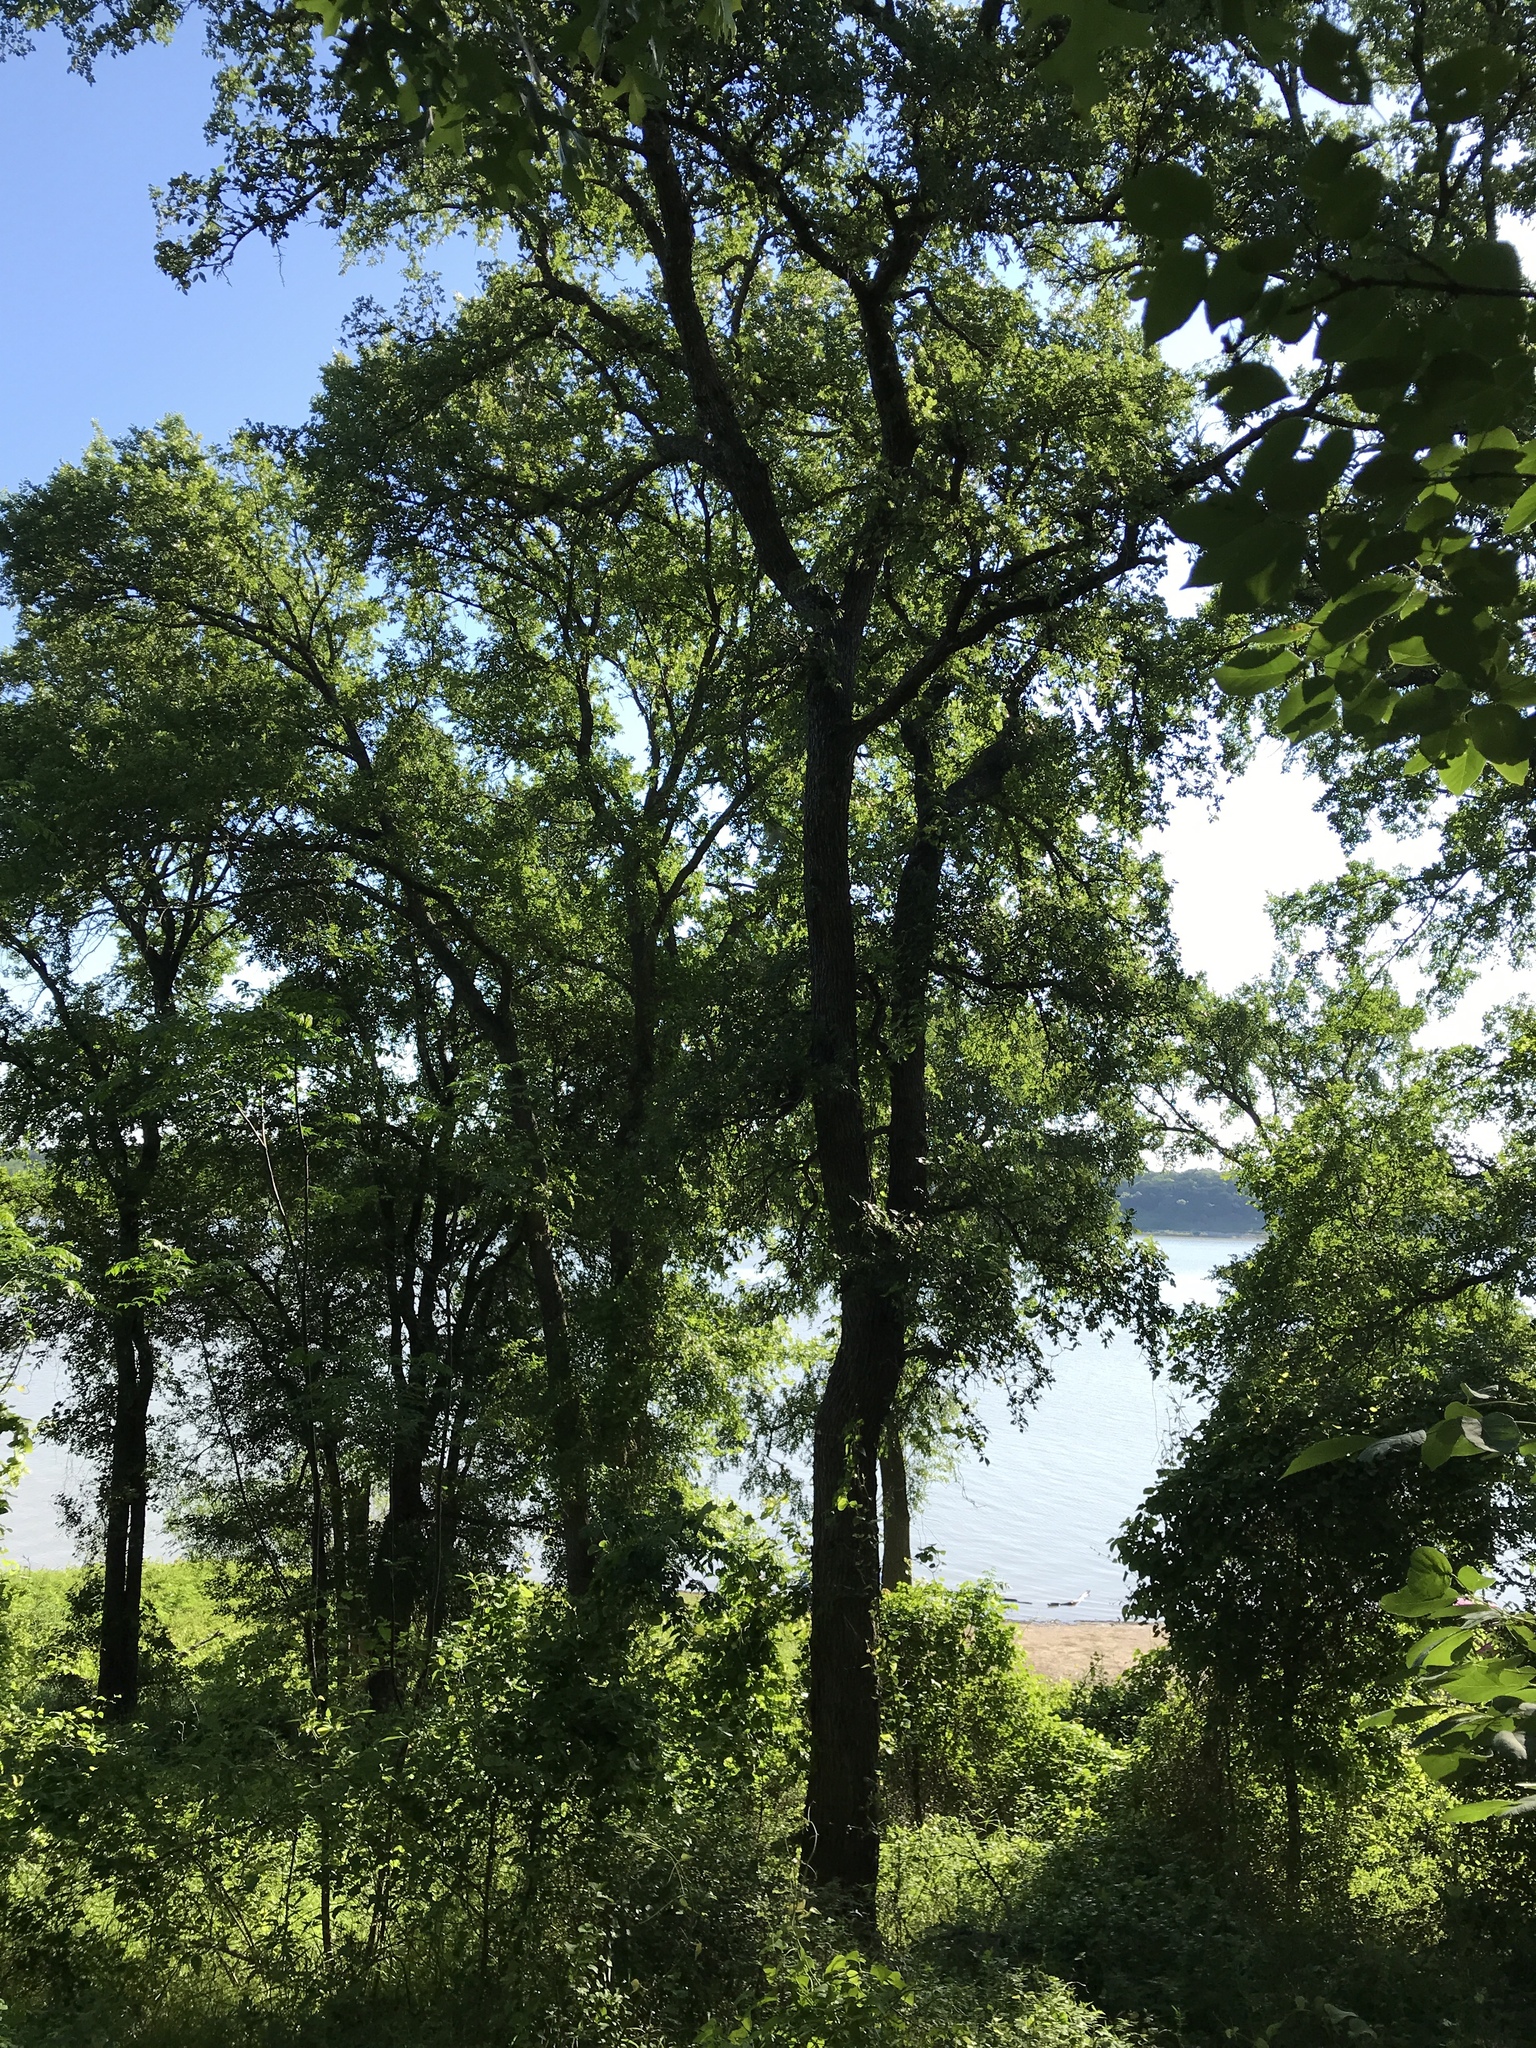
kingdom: Plantae
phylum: Tracheophyta
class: Magnoliopsida
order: Rosales
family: Ulmaceae
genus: Ulmus
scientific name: Ulmus crassifolia
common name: Basket elm
